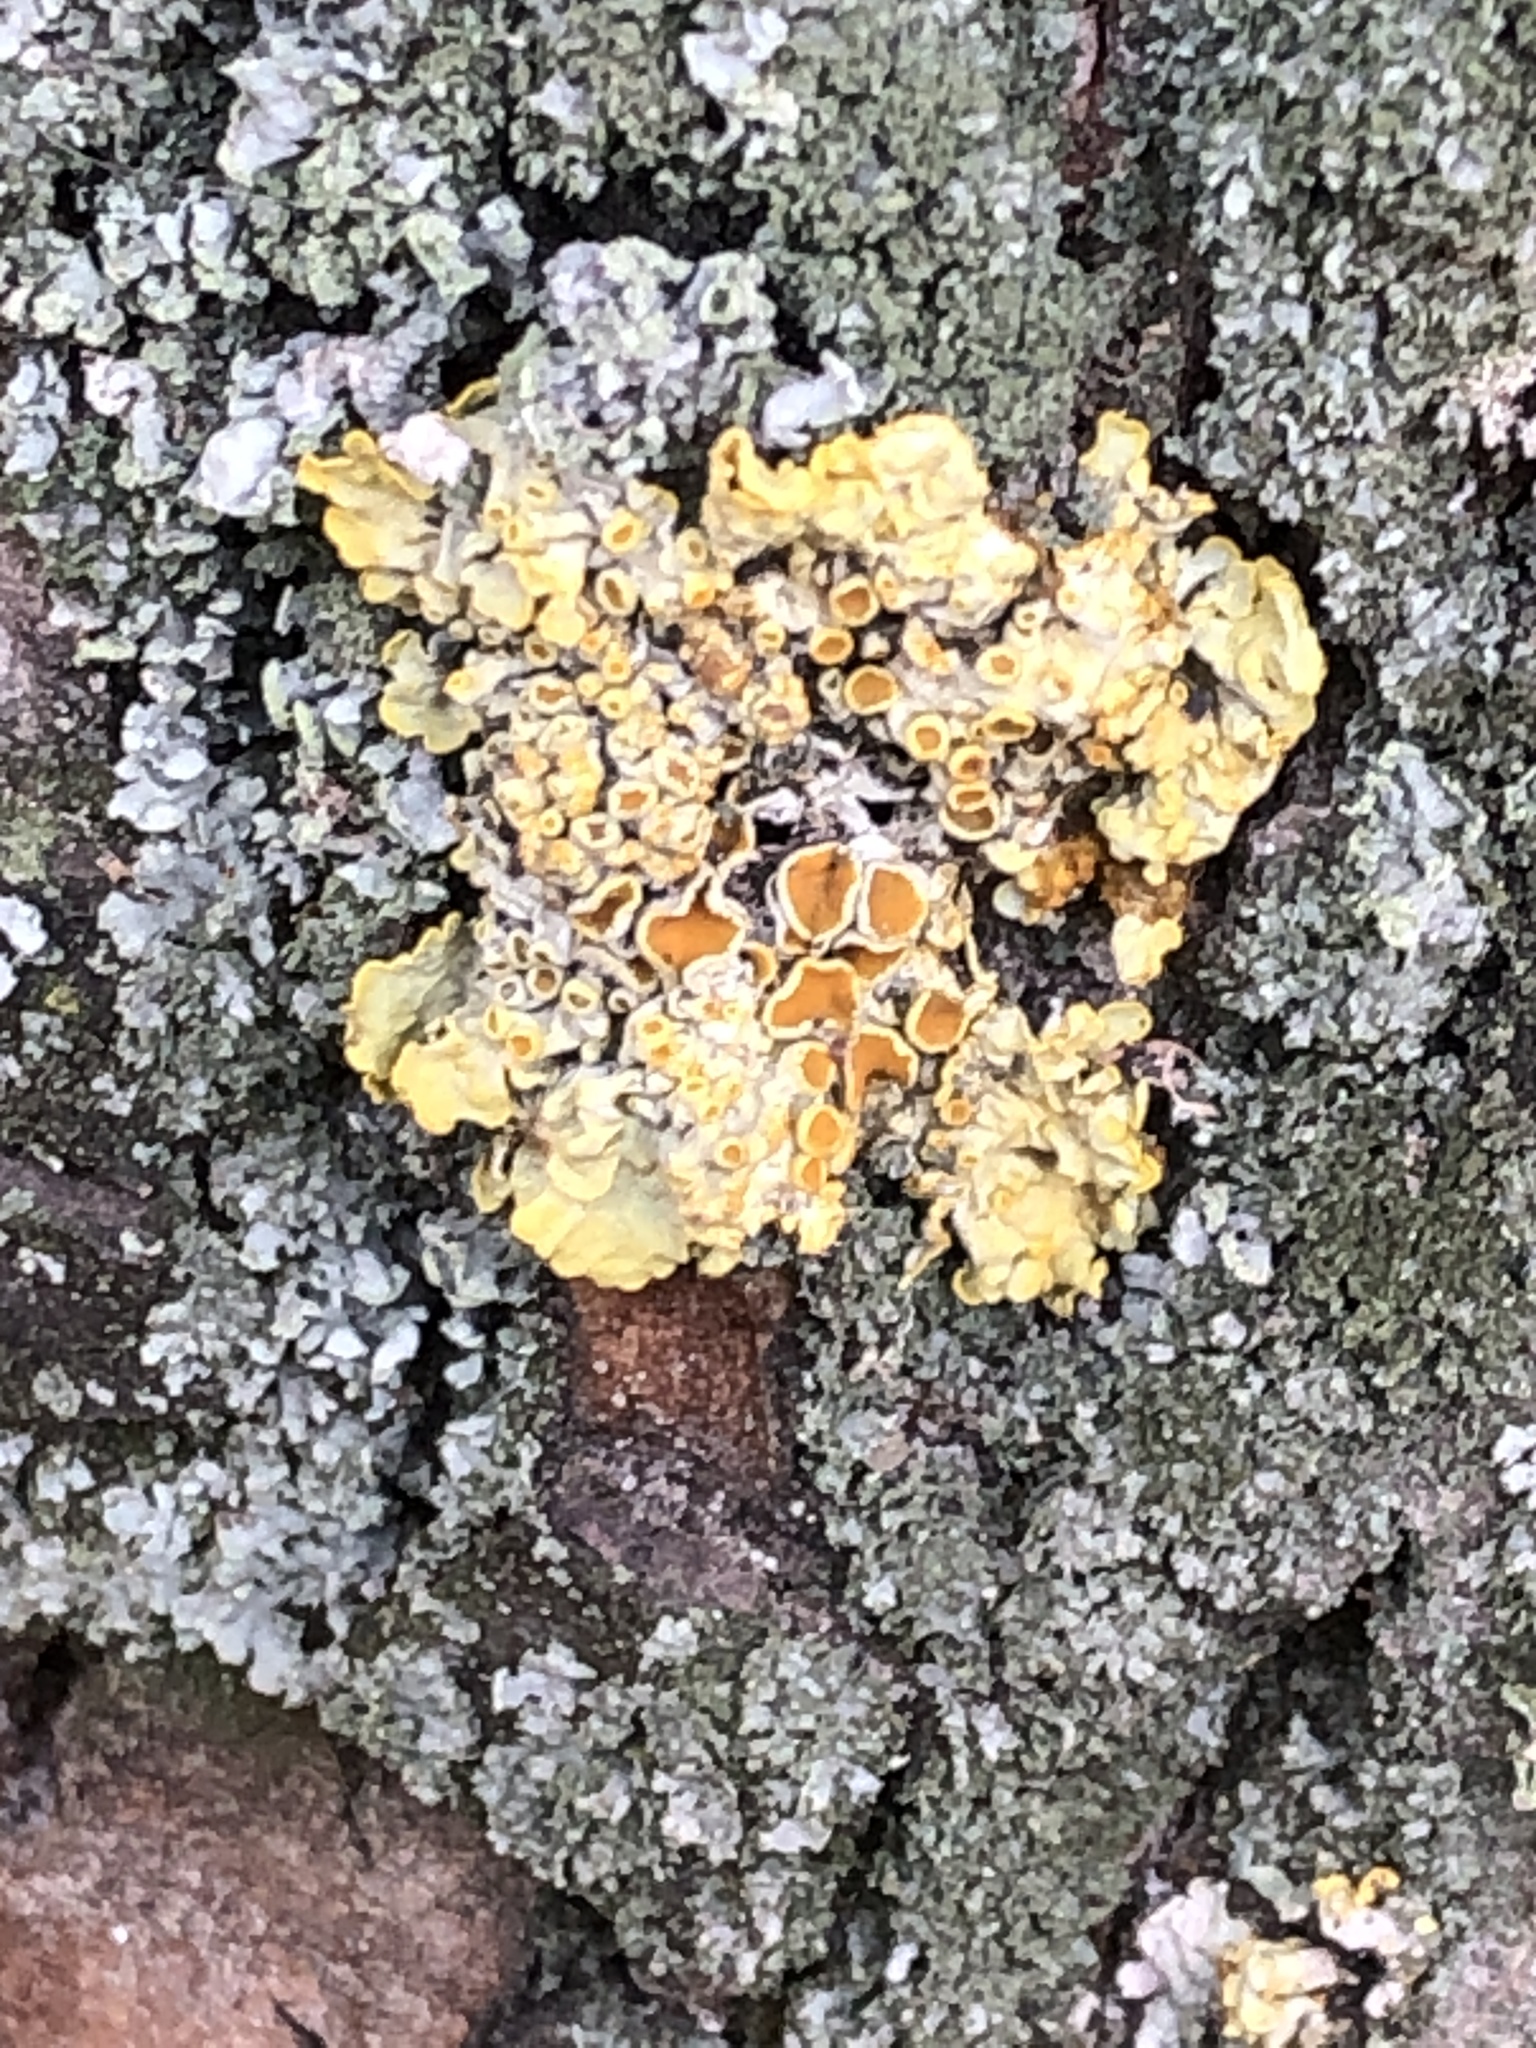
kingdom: Fungi
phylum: Ascomycota
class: Lecanoromycetes
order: Teloschistales
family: Teloschistaceae
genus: Xanthoria
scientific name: Xanthoria parietina
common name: Common orange lichen
